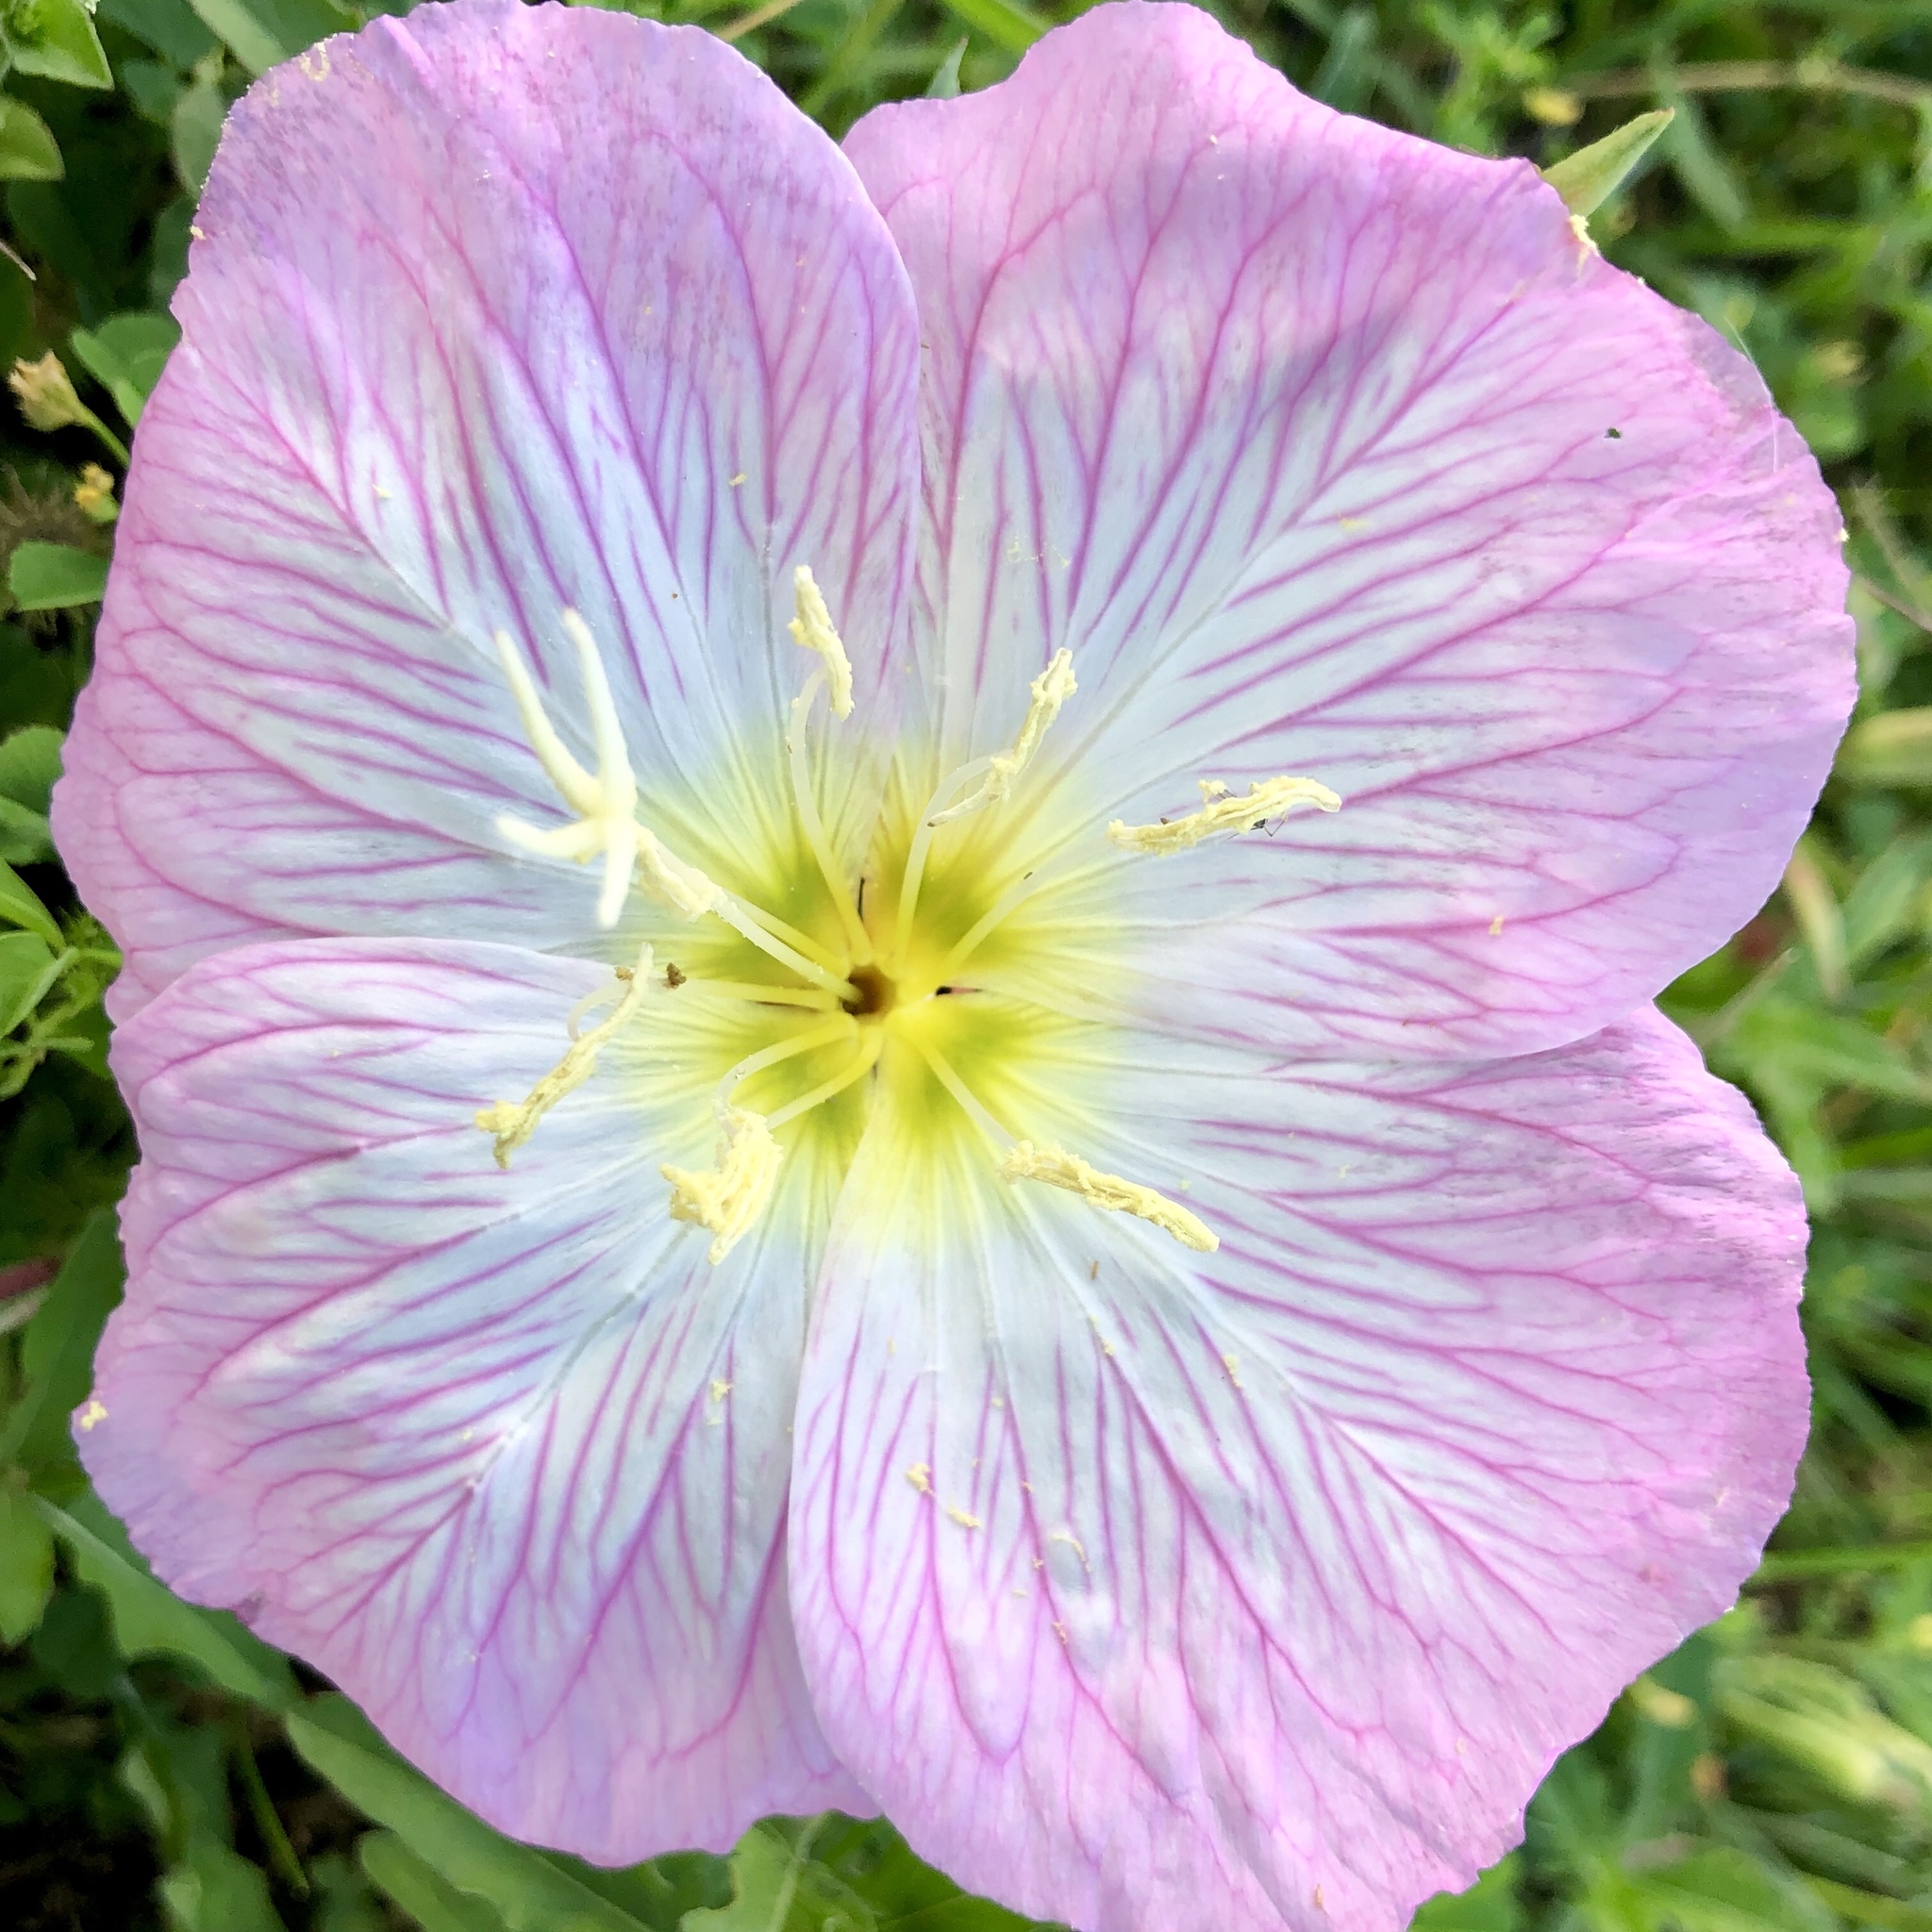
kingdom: Plantae
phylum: Tracheophyta
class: Magnoliopsida
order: Myrtales
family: Onagraceae
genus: Oenothera
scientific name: Oenothera speciosa
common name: White evening-primrose
